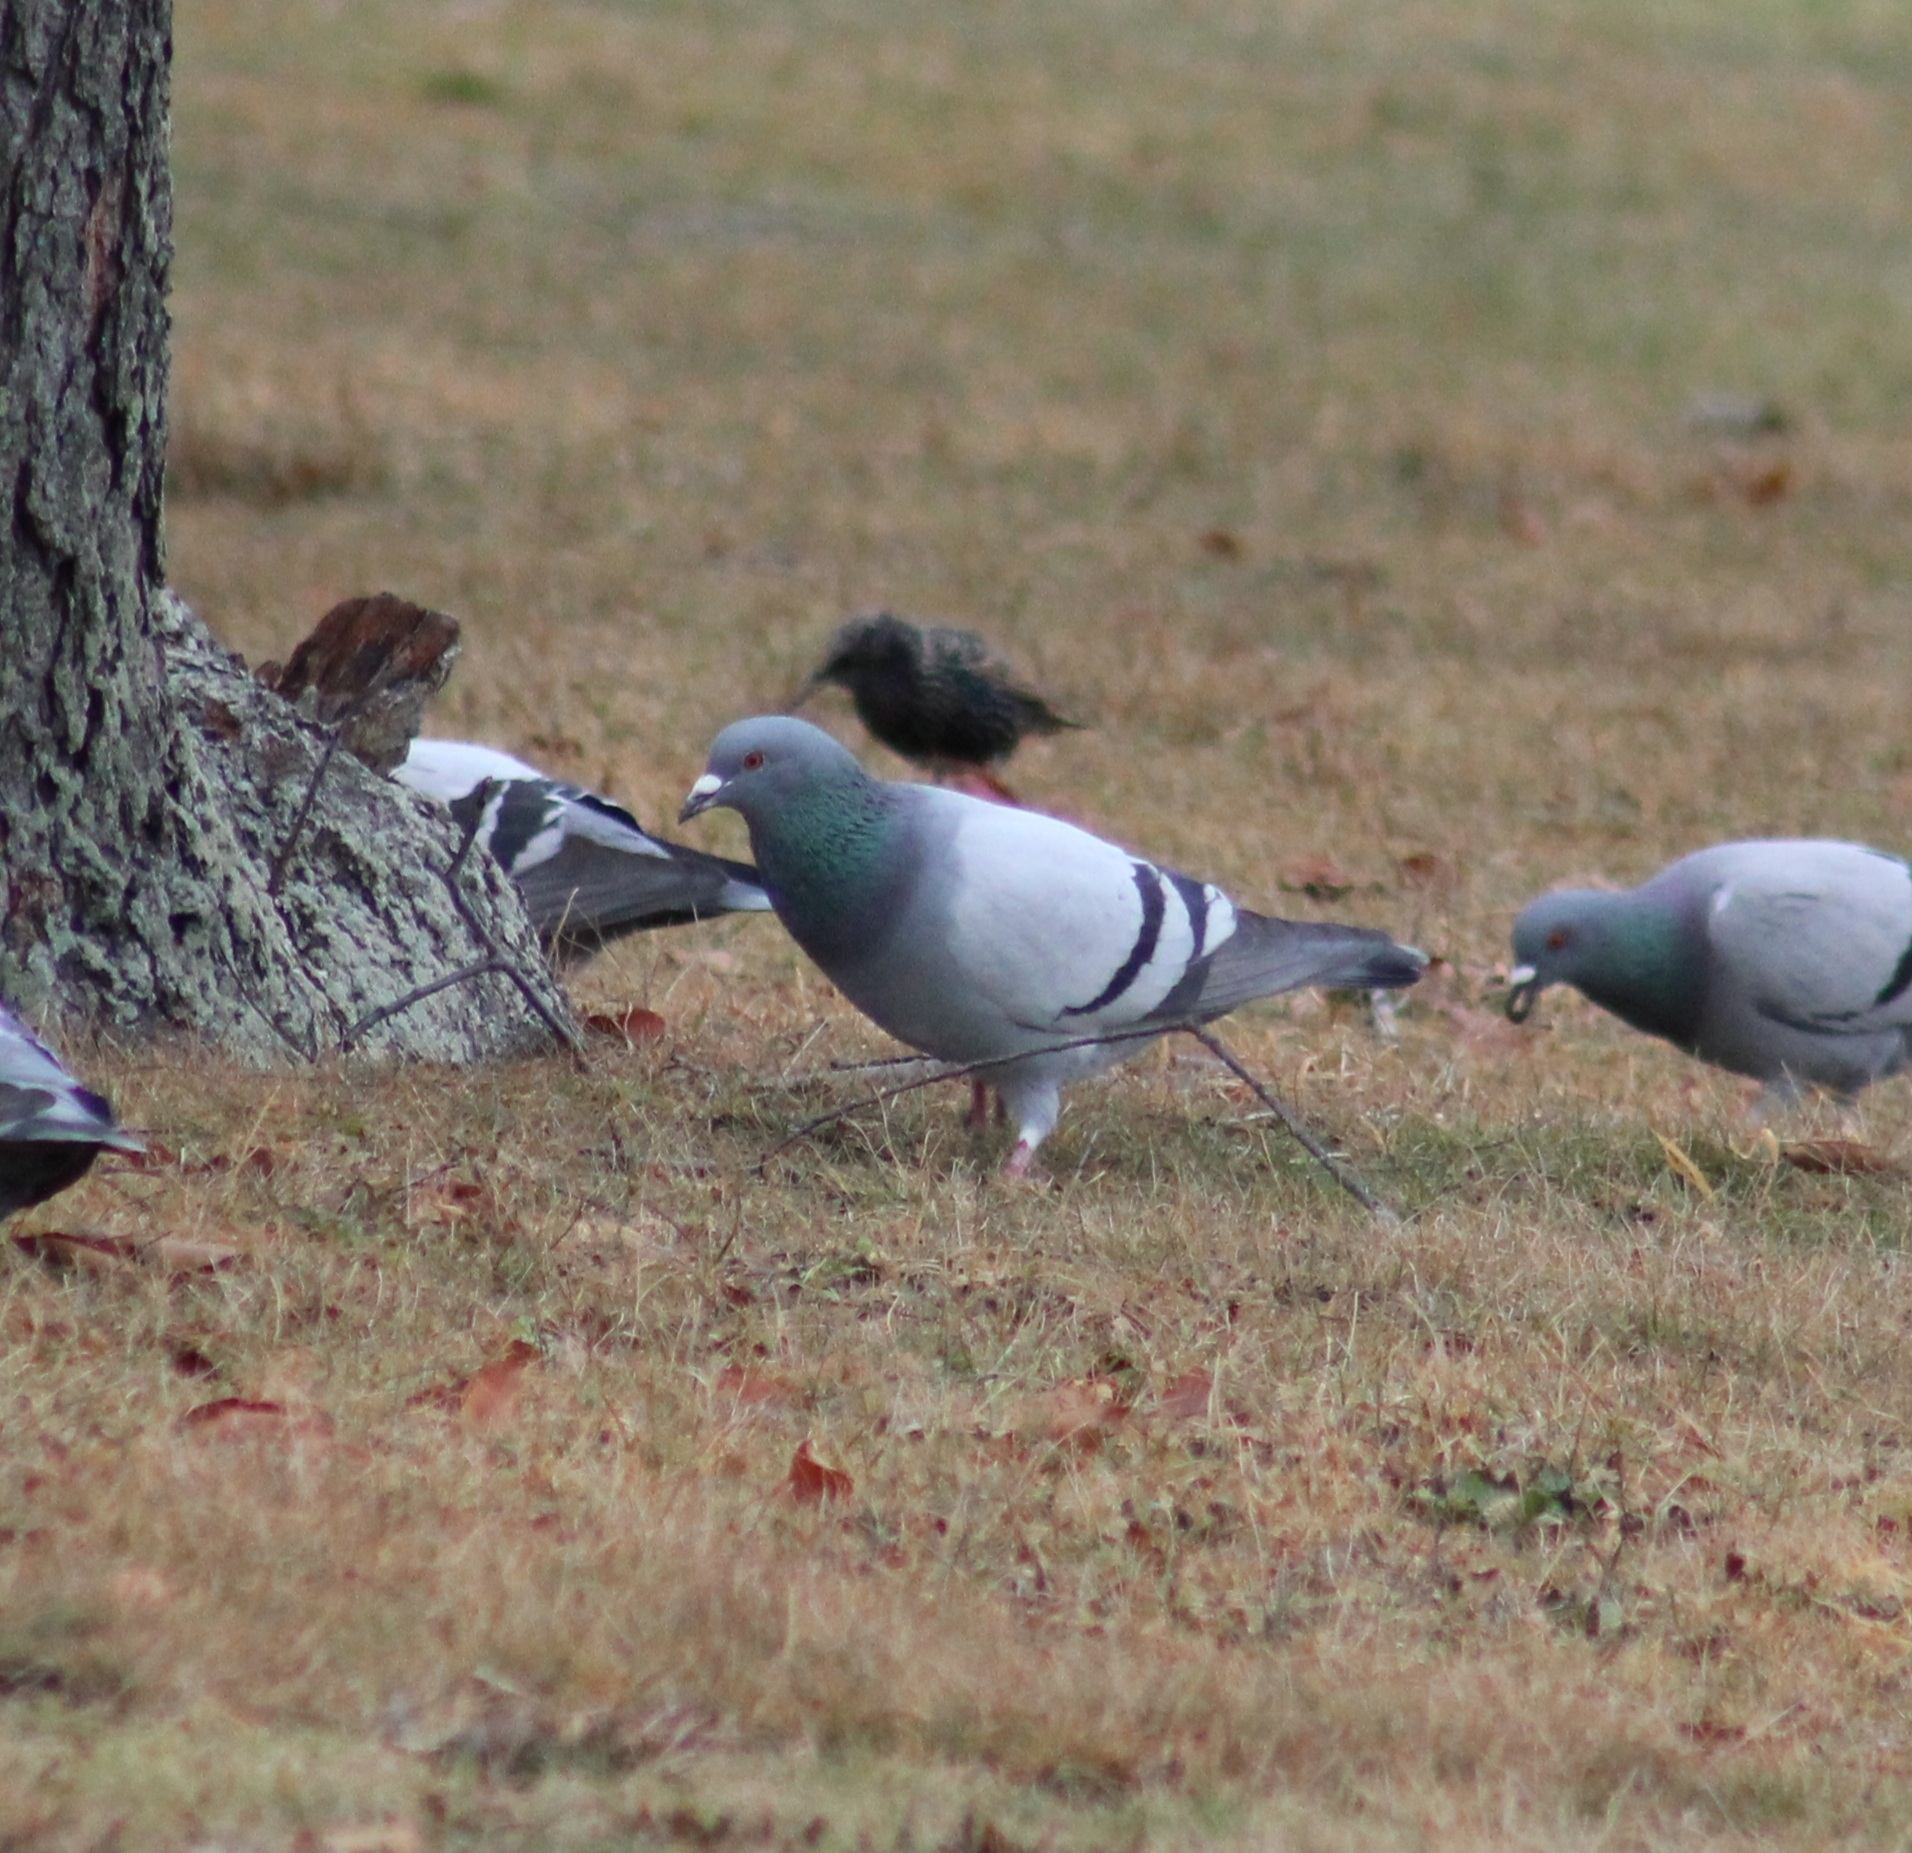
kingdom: Animalia
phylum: Chordata
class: Aves
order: Columbiformes
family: Columbidae
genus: Columba
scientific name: Columba livia
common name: Rock pigeon
